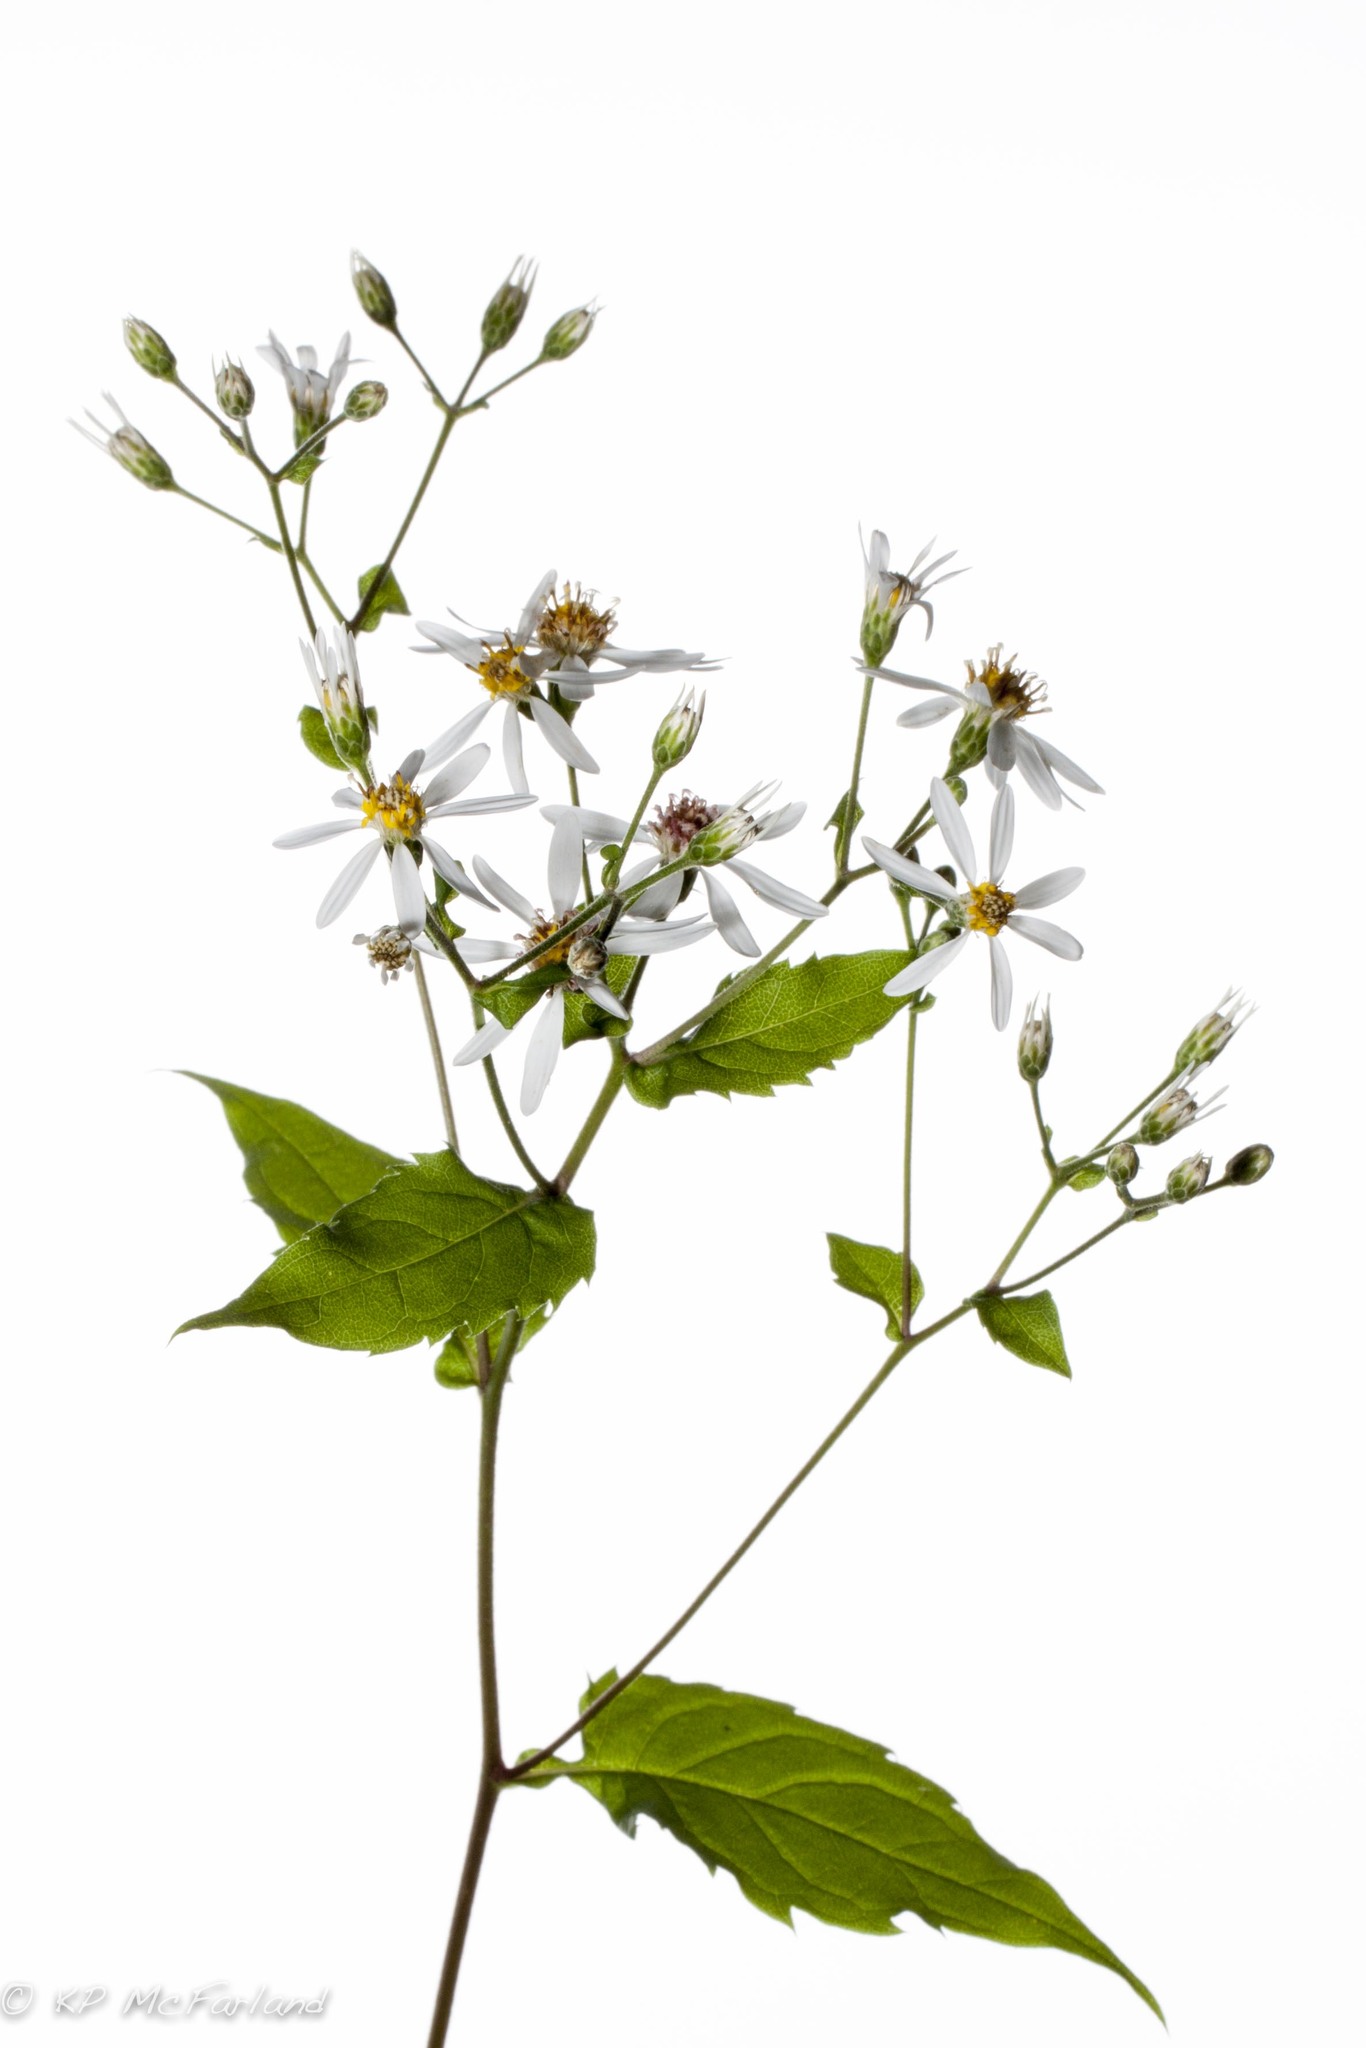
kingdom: Plantae
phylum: Tracheophyta
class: Magnoliopsida
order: Asterales
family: Asteraceae
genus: Eurybia
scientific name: Eurybia divaricata
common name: White wood aster
